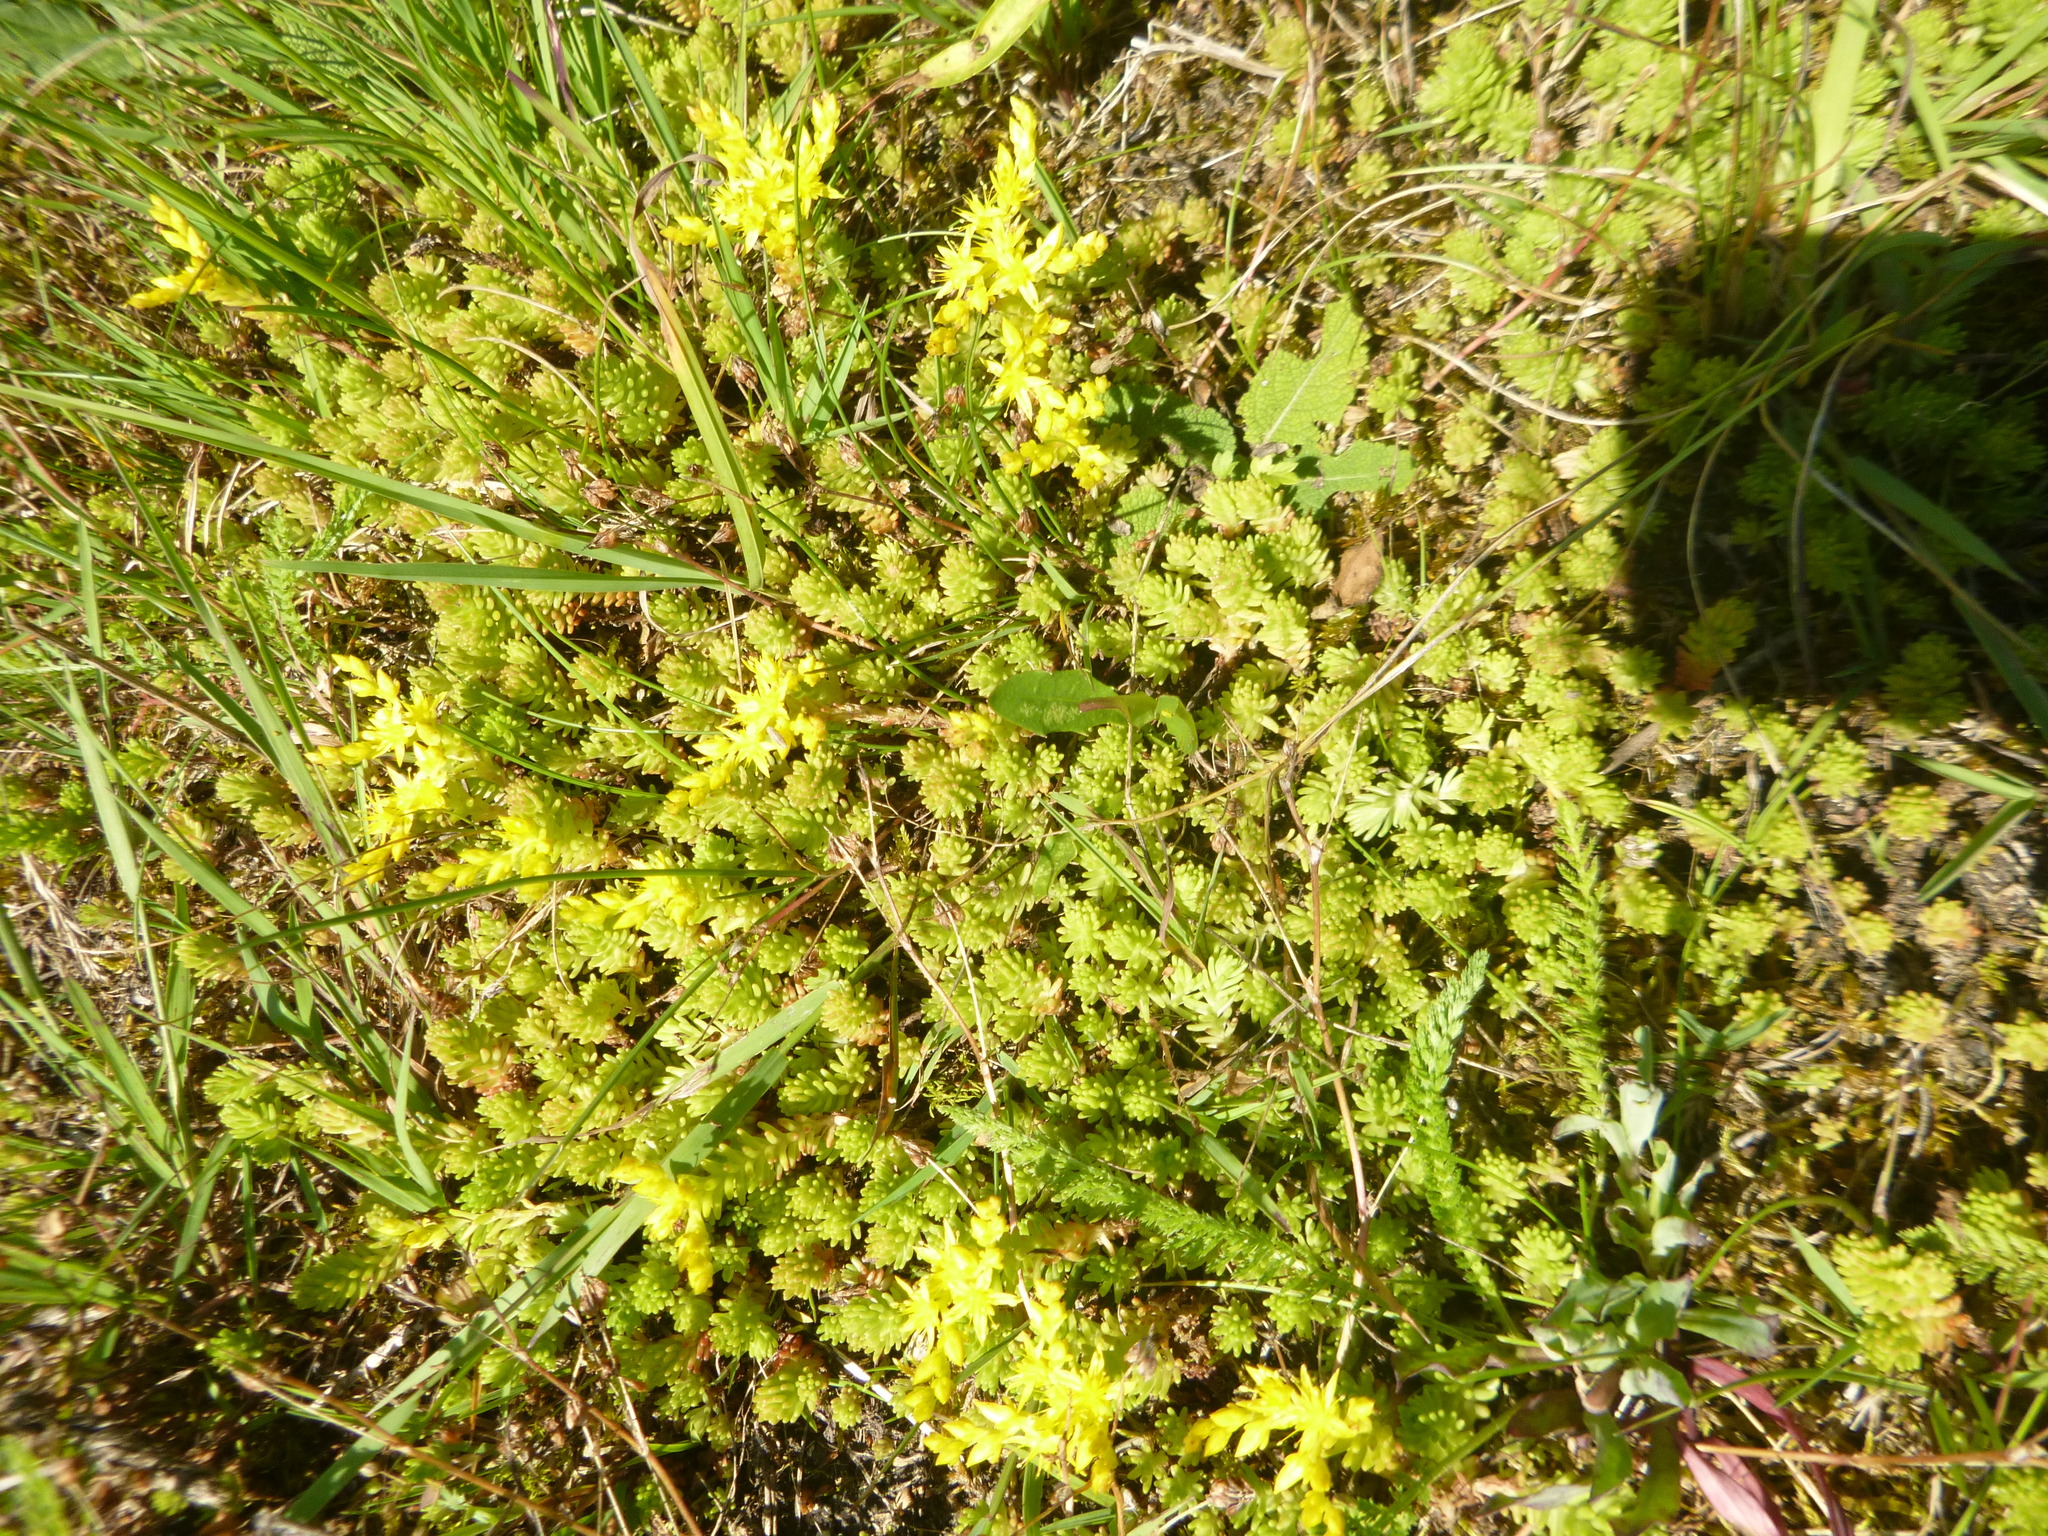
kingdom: Plantae
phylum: Tracheophyta
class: Magnoliopsida
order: Saxifragales
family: Crassulaceae
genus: Sedum
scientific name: Sedum sexangulare
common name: Tasteless stonecrop
